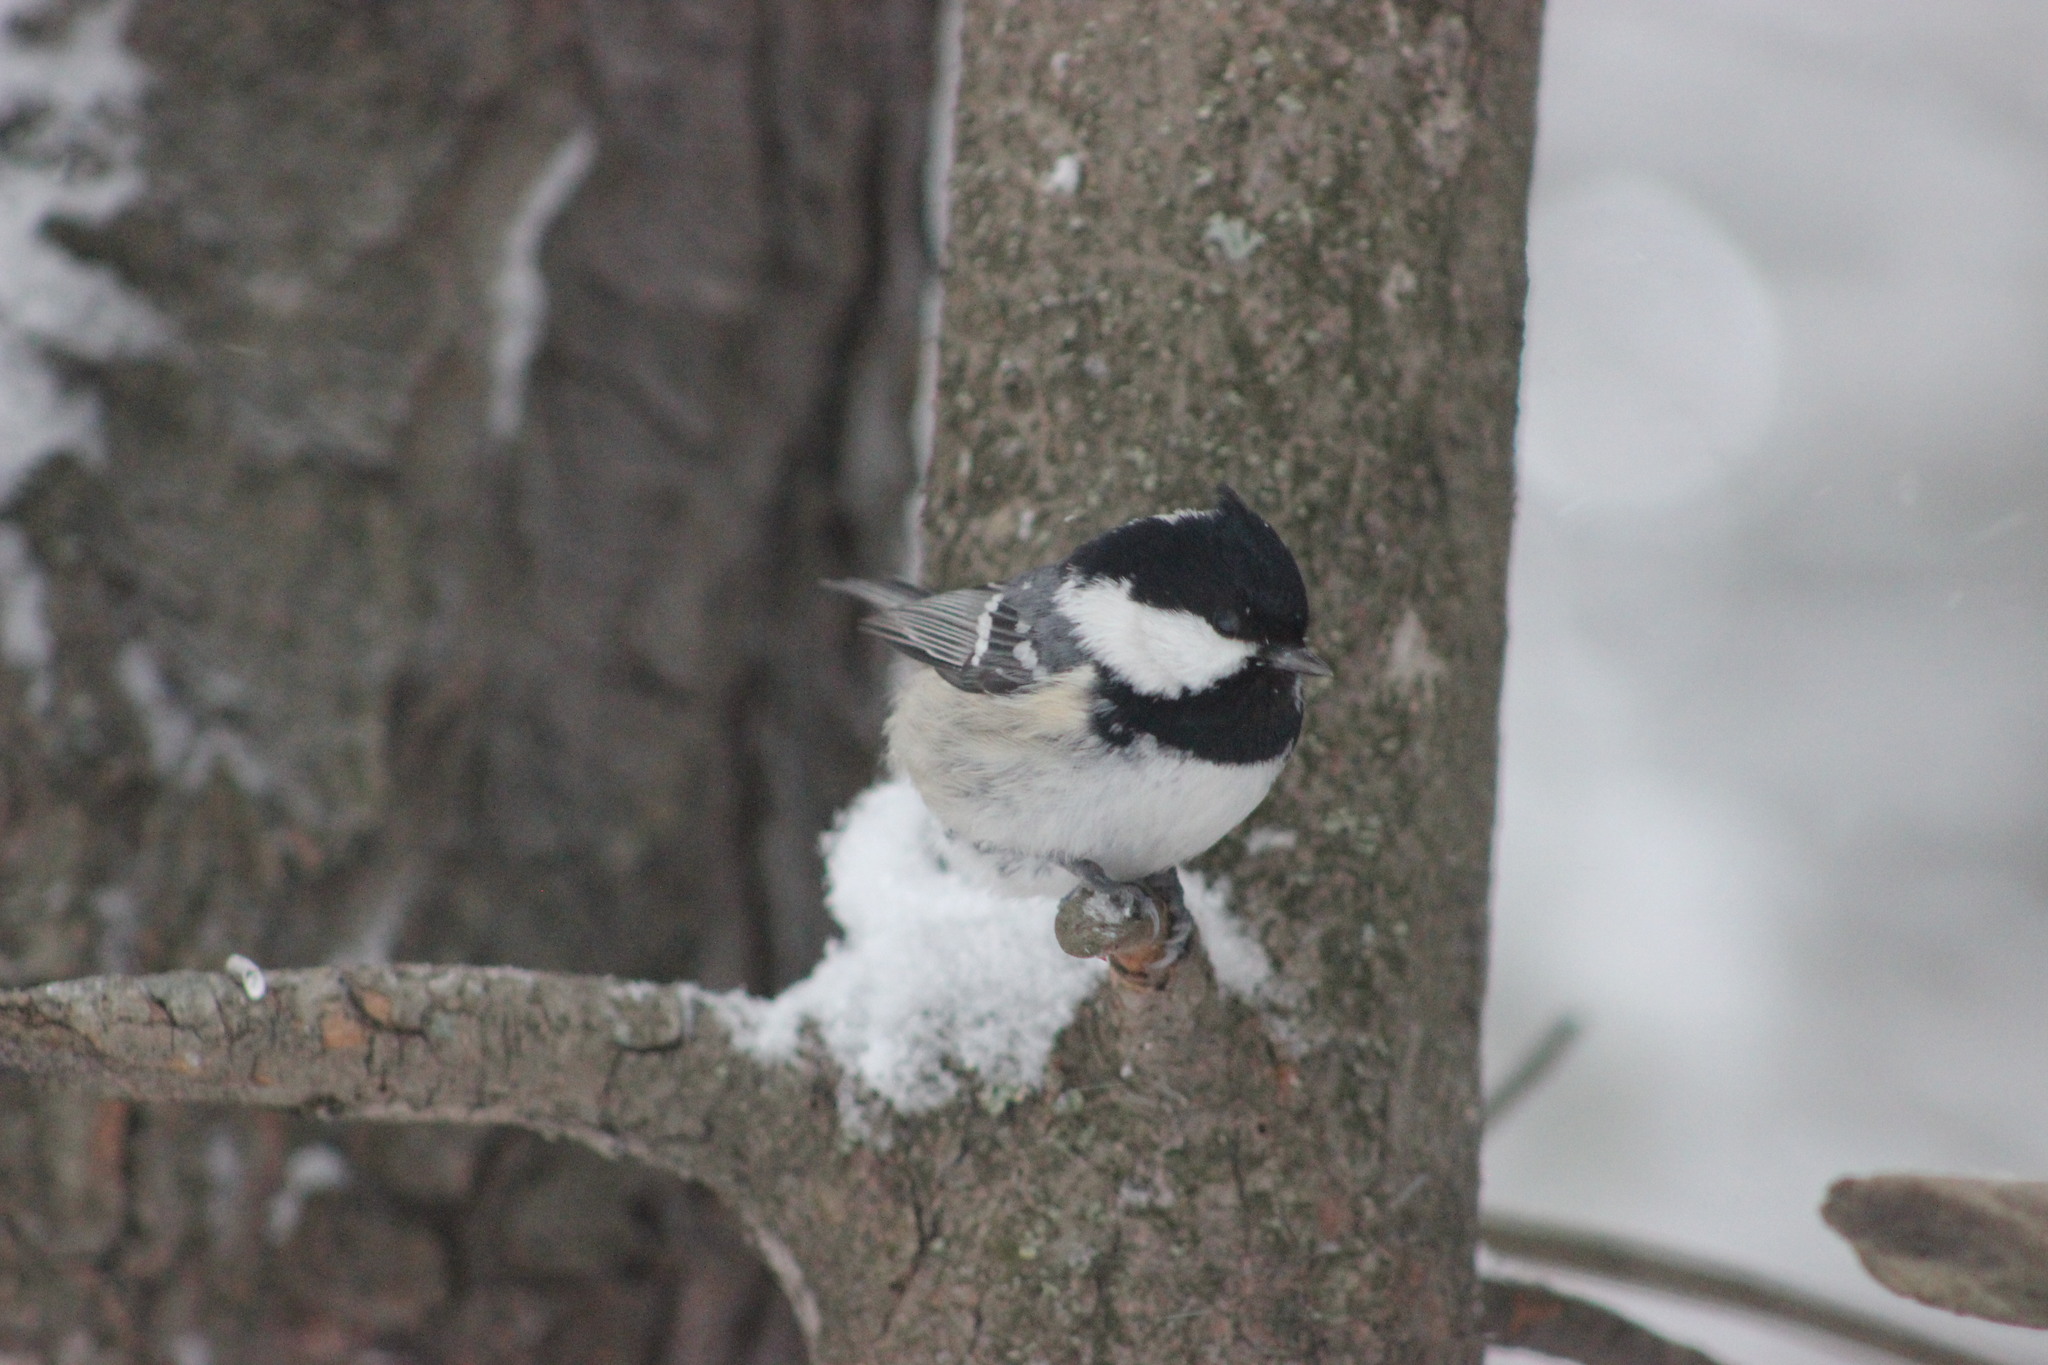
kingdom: Animalia
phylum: Chordata
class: Aves
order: Passeriformes
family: Paridae
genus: Periparus
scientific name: Periparus ater
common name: Coal tit
